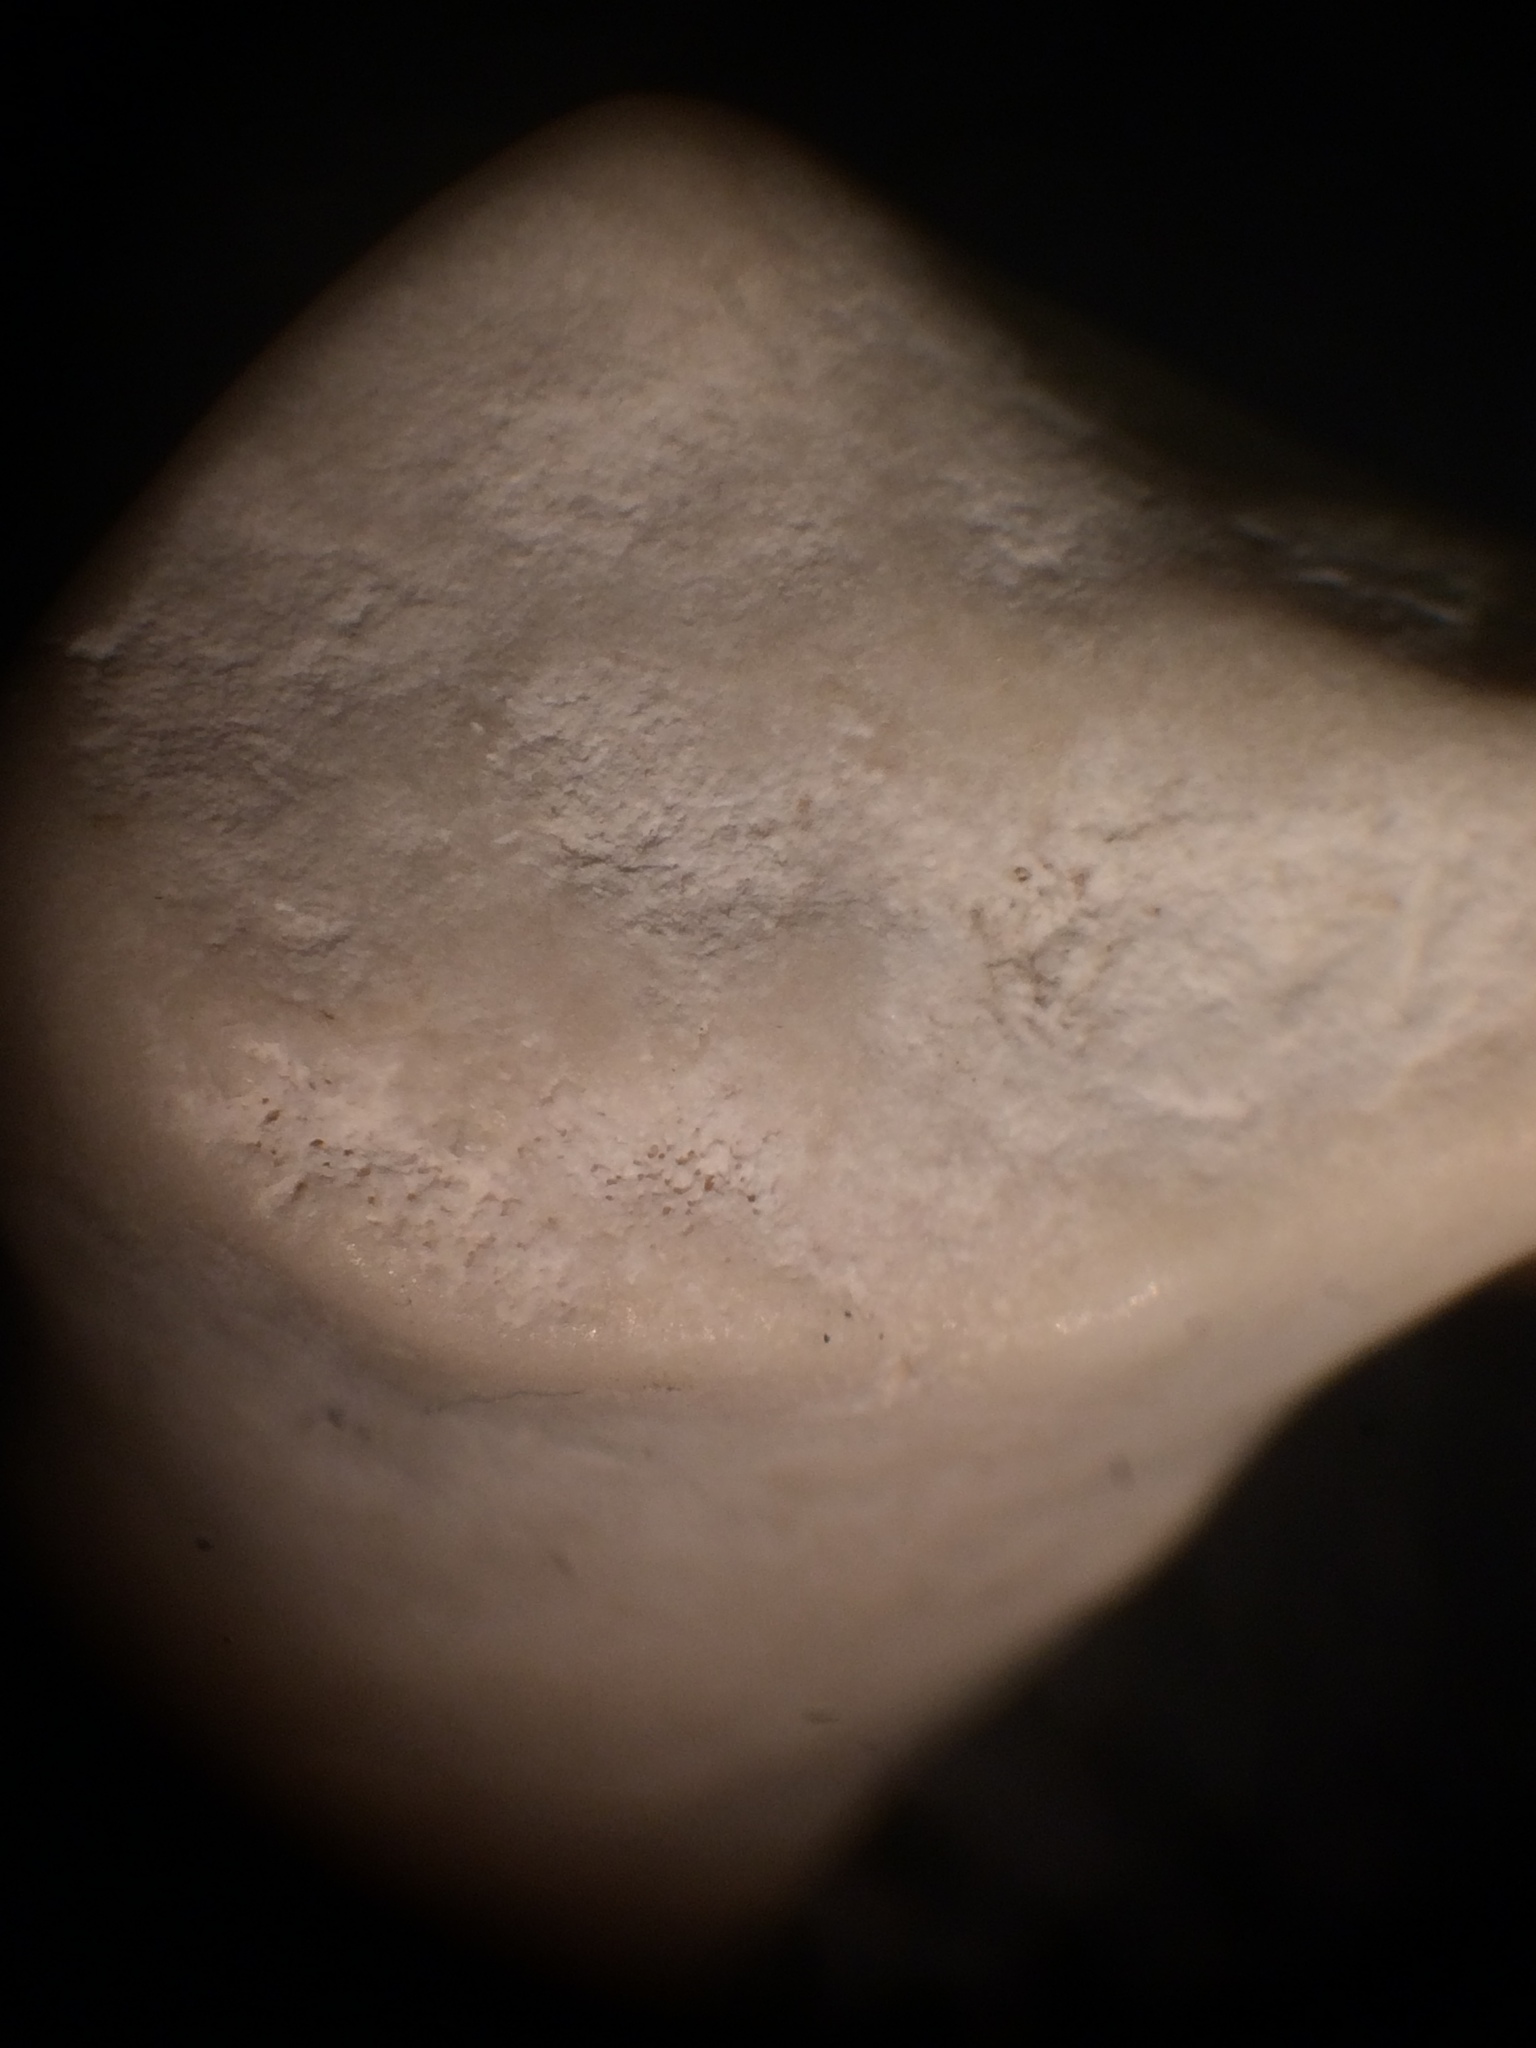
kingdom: Animalia
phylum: Chordata
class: Mammalia
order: Artiodactyla
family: Cervidae
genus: Odocoileus
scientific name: Odocoileus virginianus
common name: White-tailed deer
